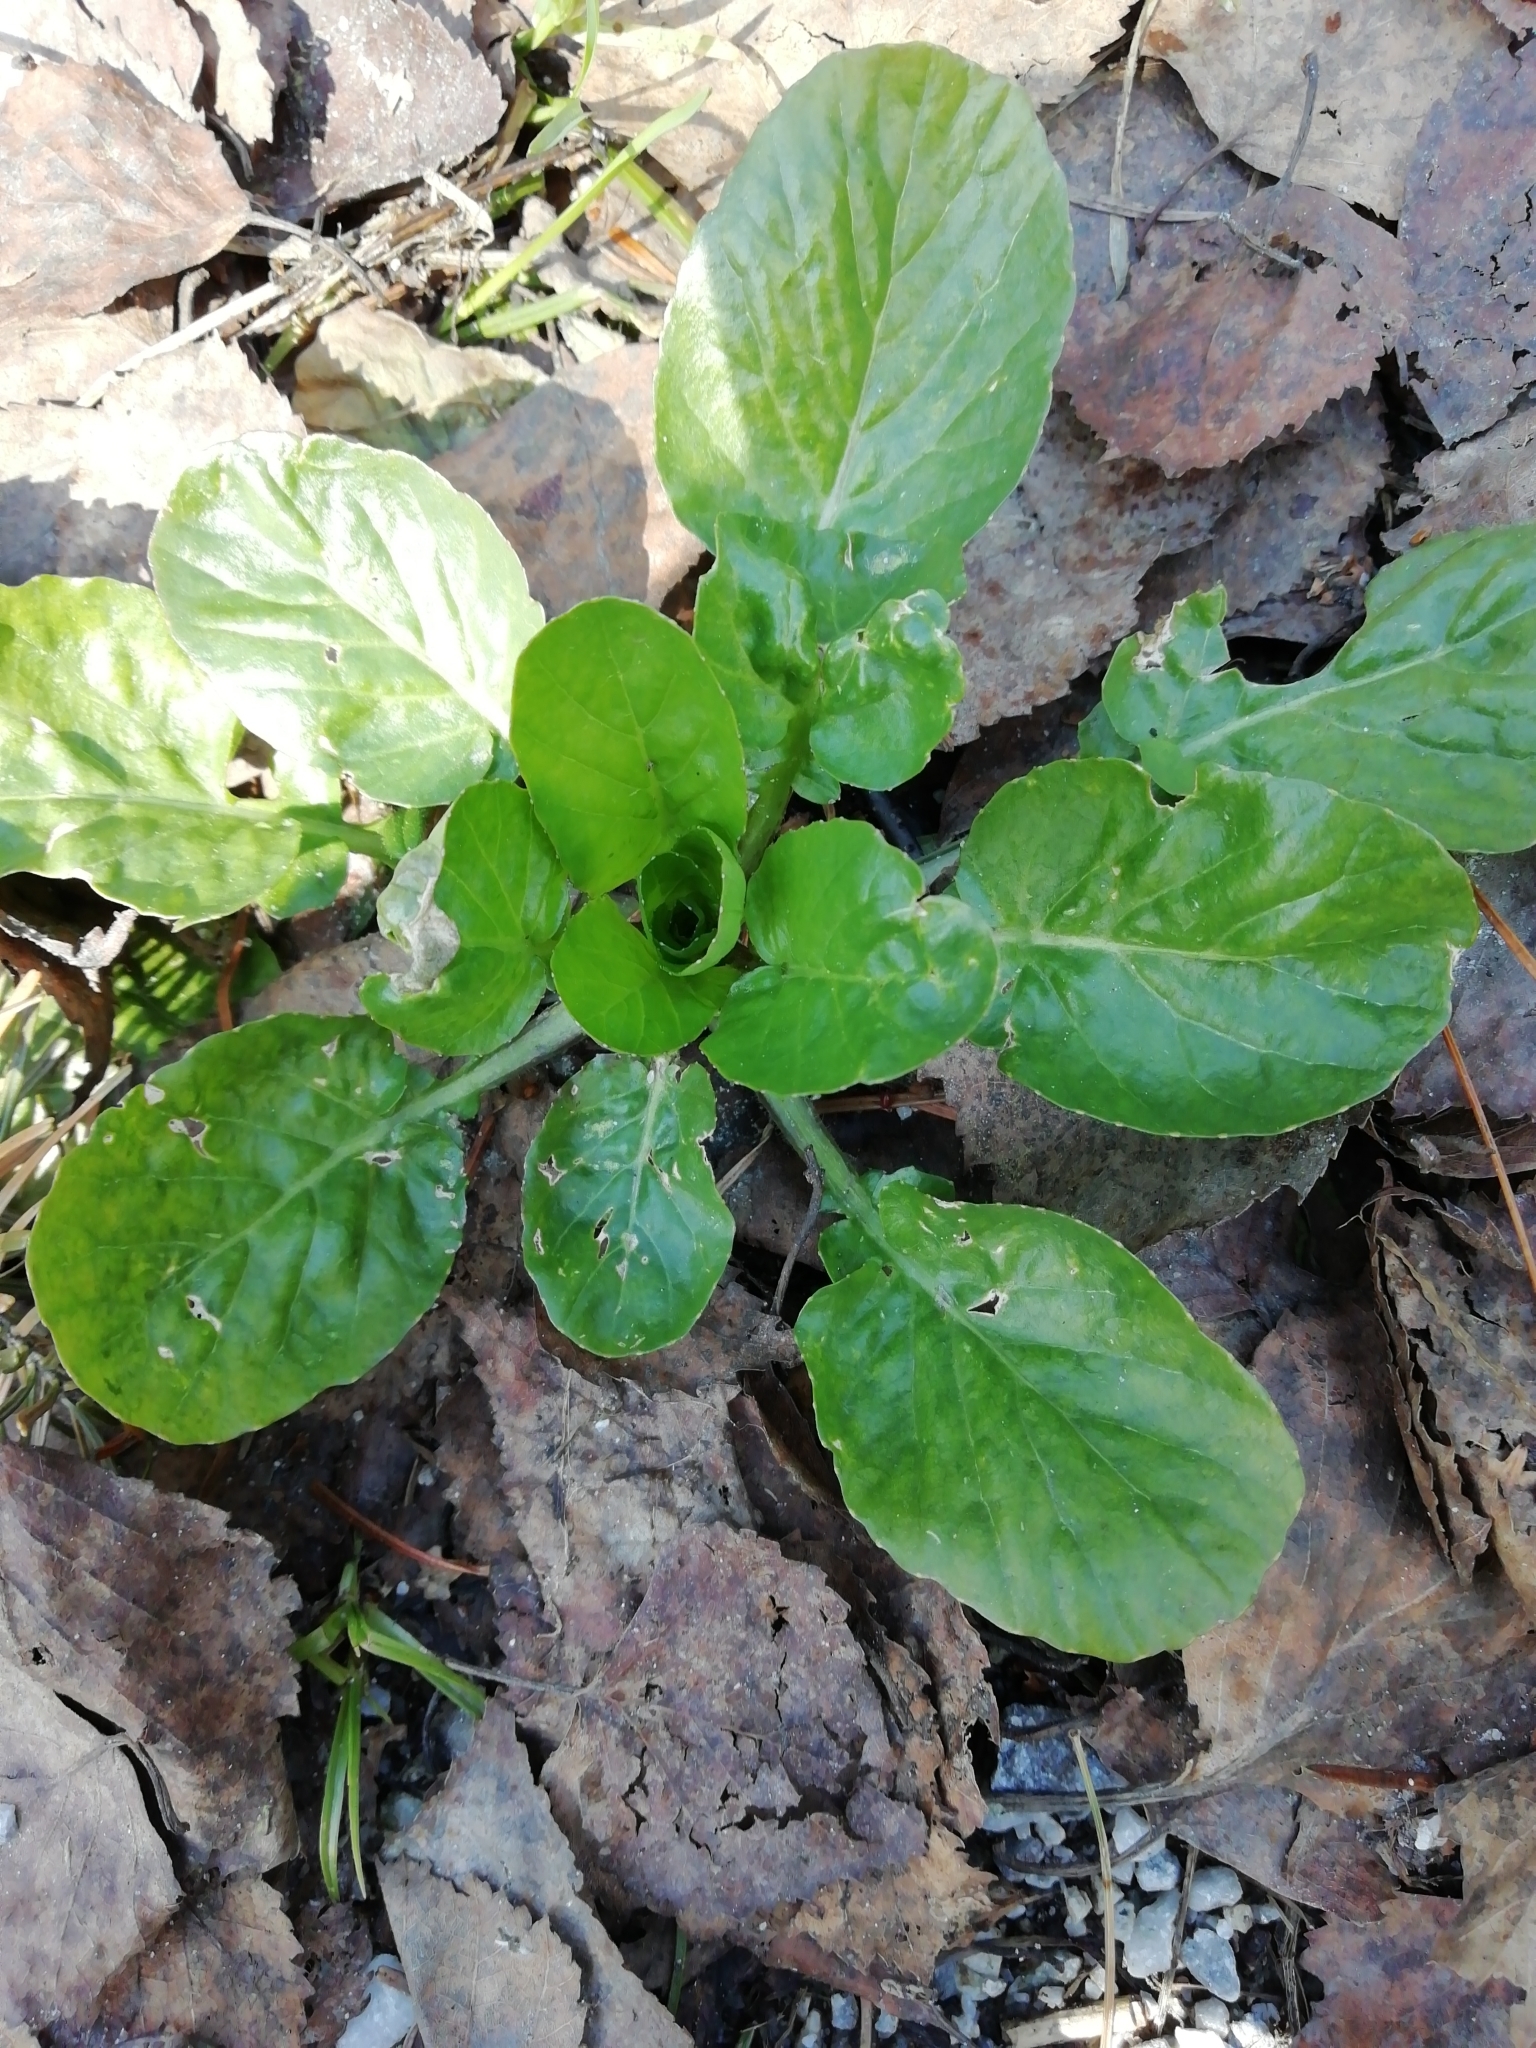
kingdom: Plantae
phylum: Tracheophyta
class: Magnoliopsida
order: Brassicales
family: Brassicaceae
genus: Barbarea
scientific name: Barbarea vulgaris
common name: Cressy-greens
